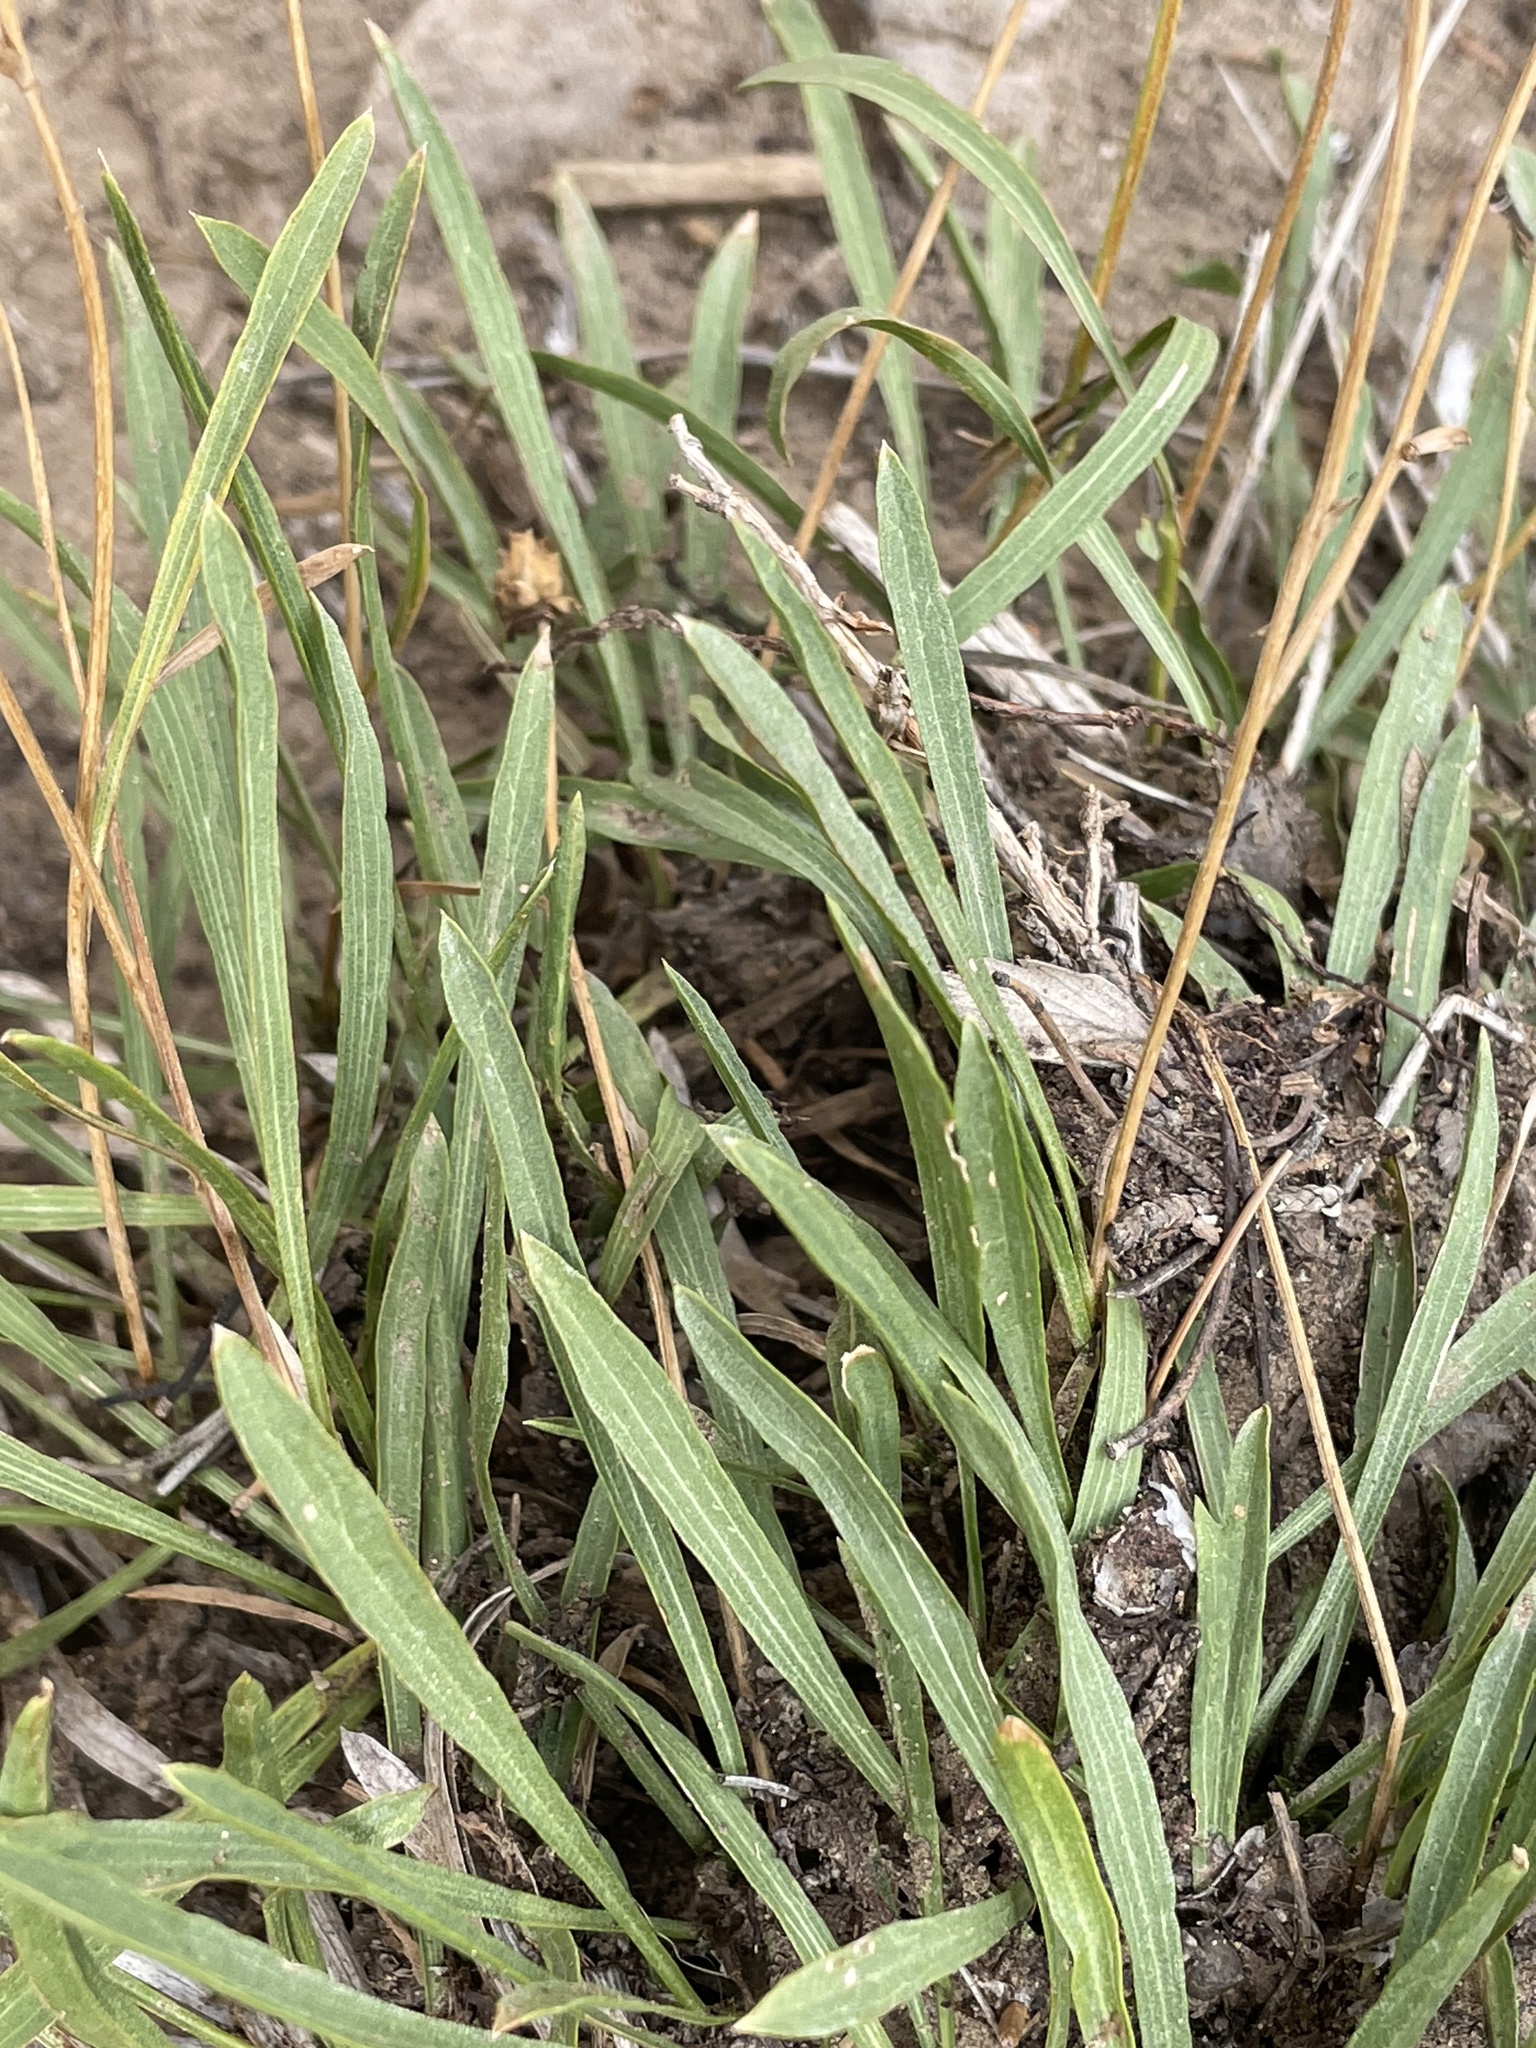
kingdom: Plantae
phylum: Tracheophyta
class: Magnoliopsida
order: Asterales
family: Asteraceae
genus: Stenotus
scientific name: Stenotus armerioides
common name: Thrifty goldenweed
